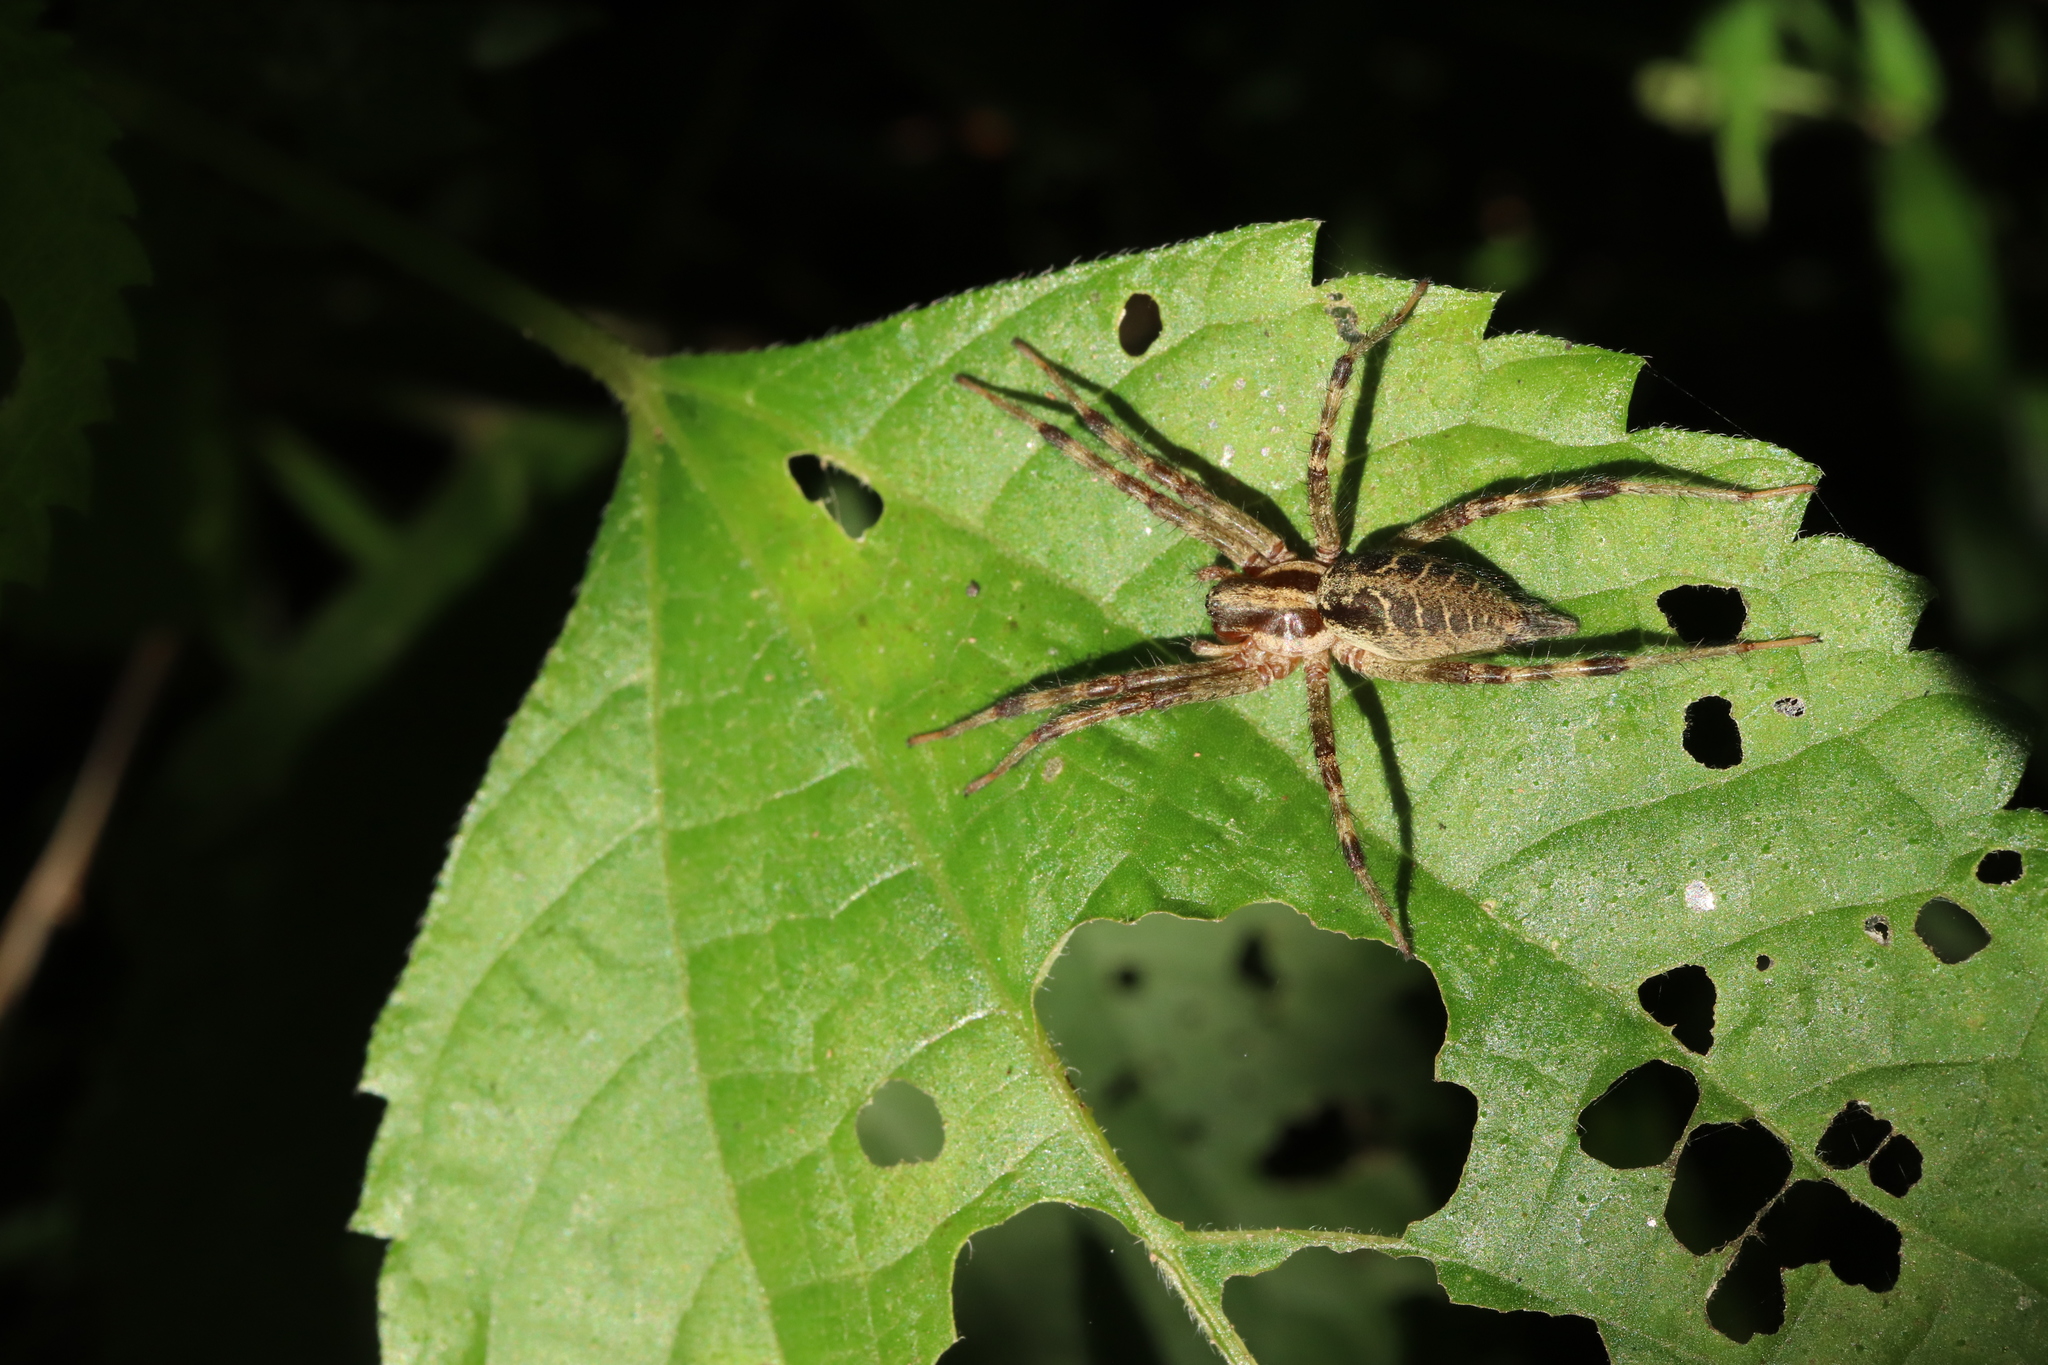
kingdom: Animalia
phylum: Arthropoda
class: Arachnida
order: Araneae
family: Agelenidae
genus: Agelena
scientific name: Agelena silvatica
